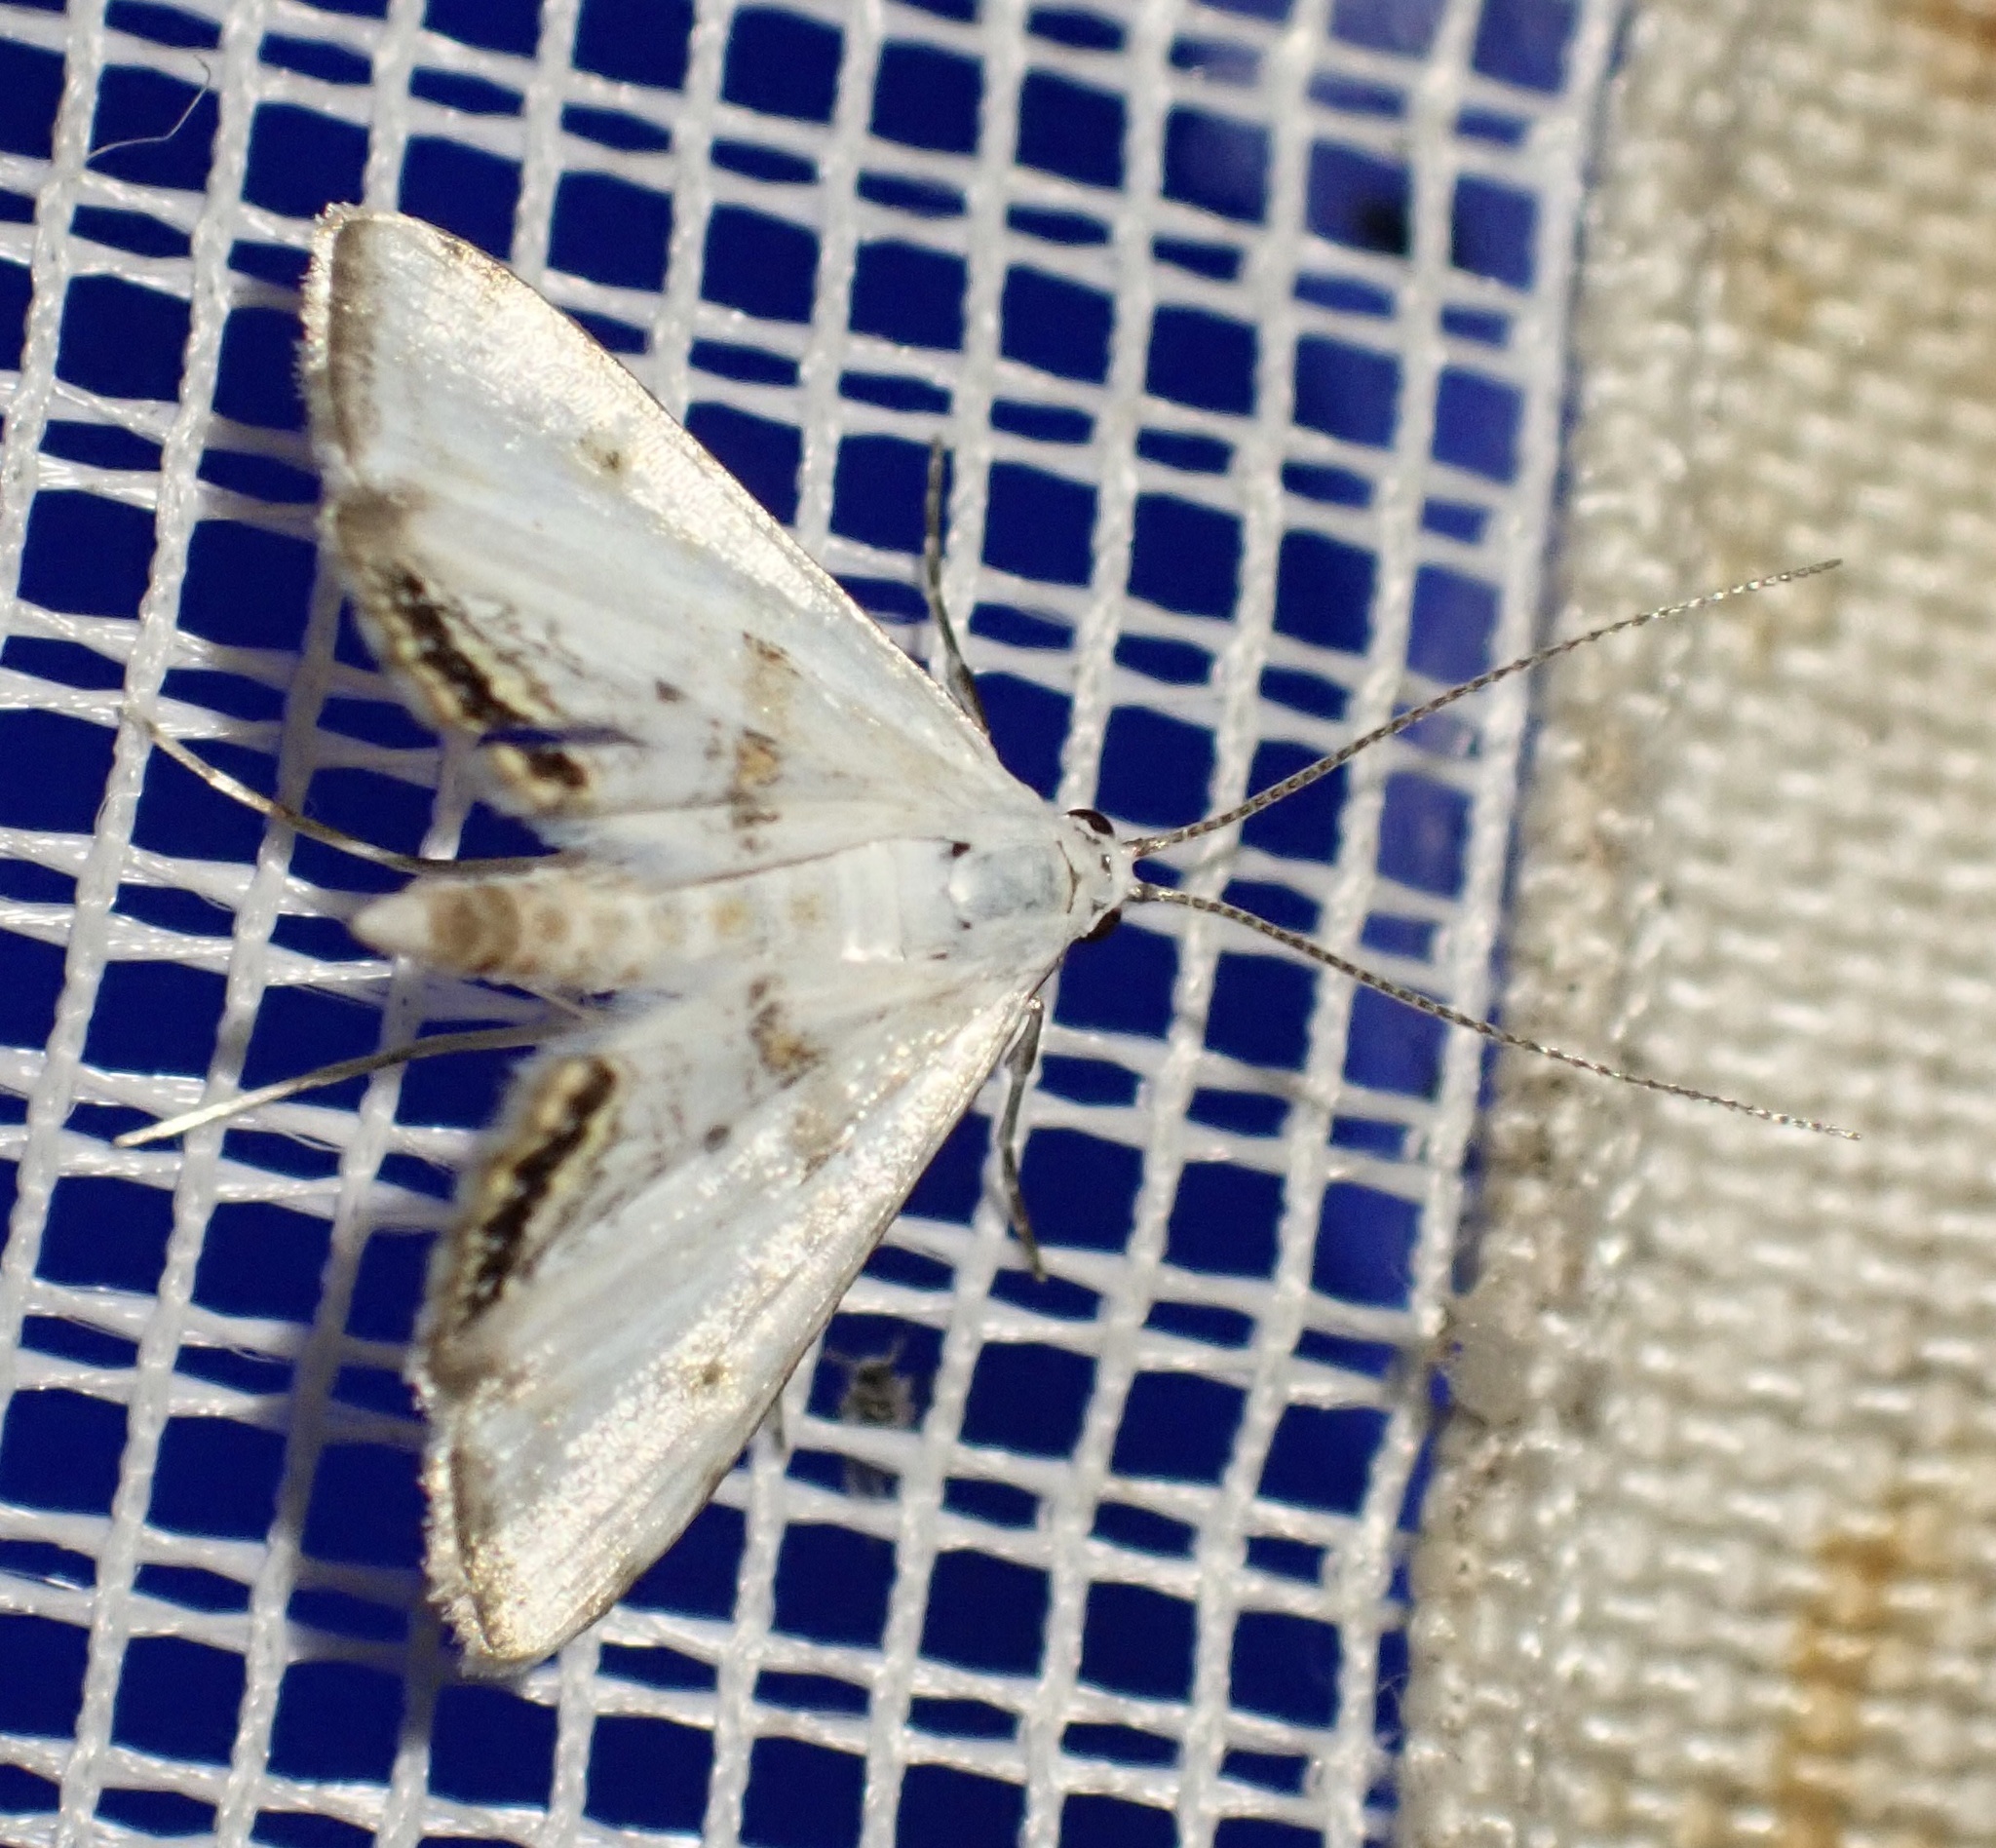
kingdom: Animalia
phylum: Arthropoda
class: Insecta
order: Lepidoptera
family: Crambidae
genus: Cataclysta
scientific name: Cataclysta lemnata
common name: Small china-mark
